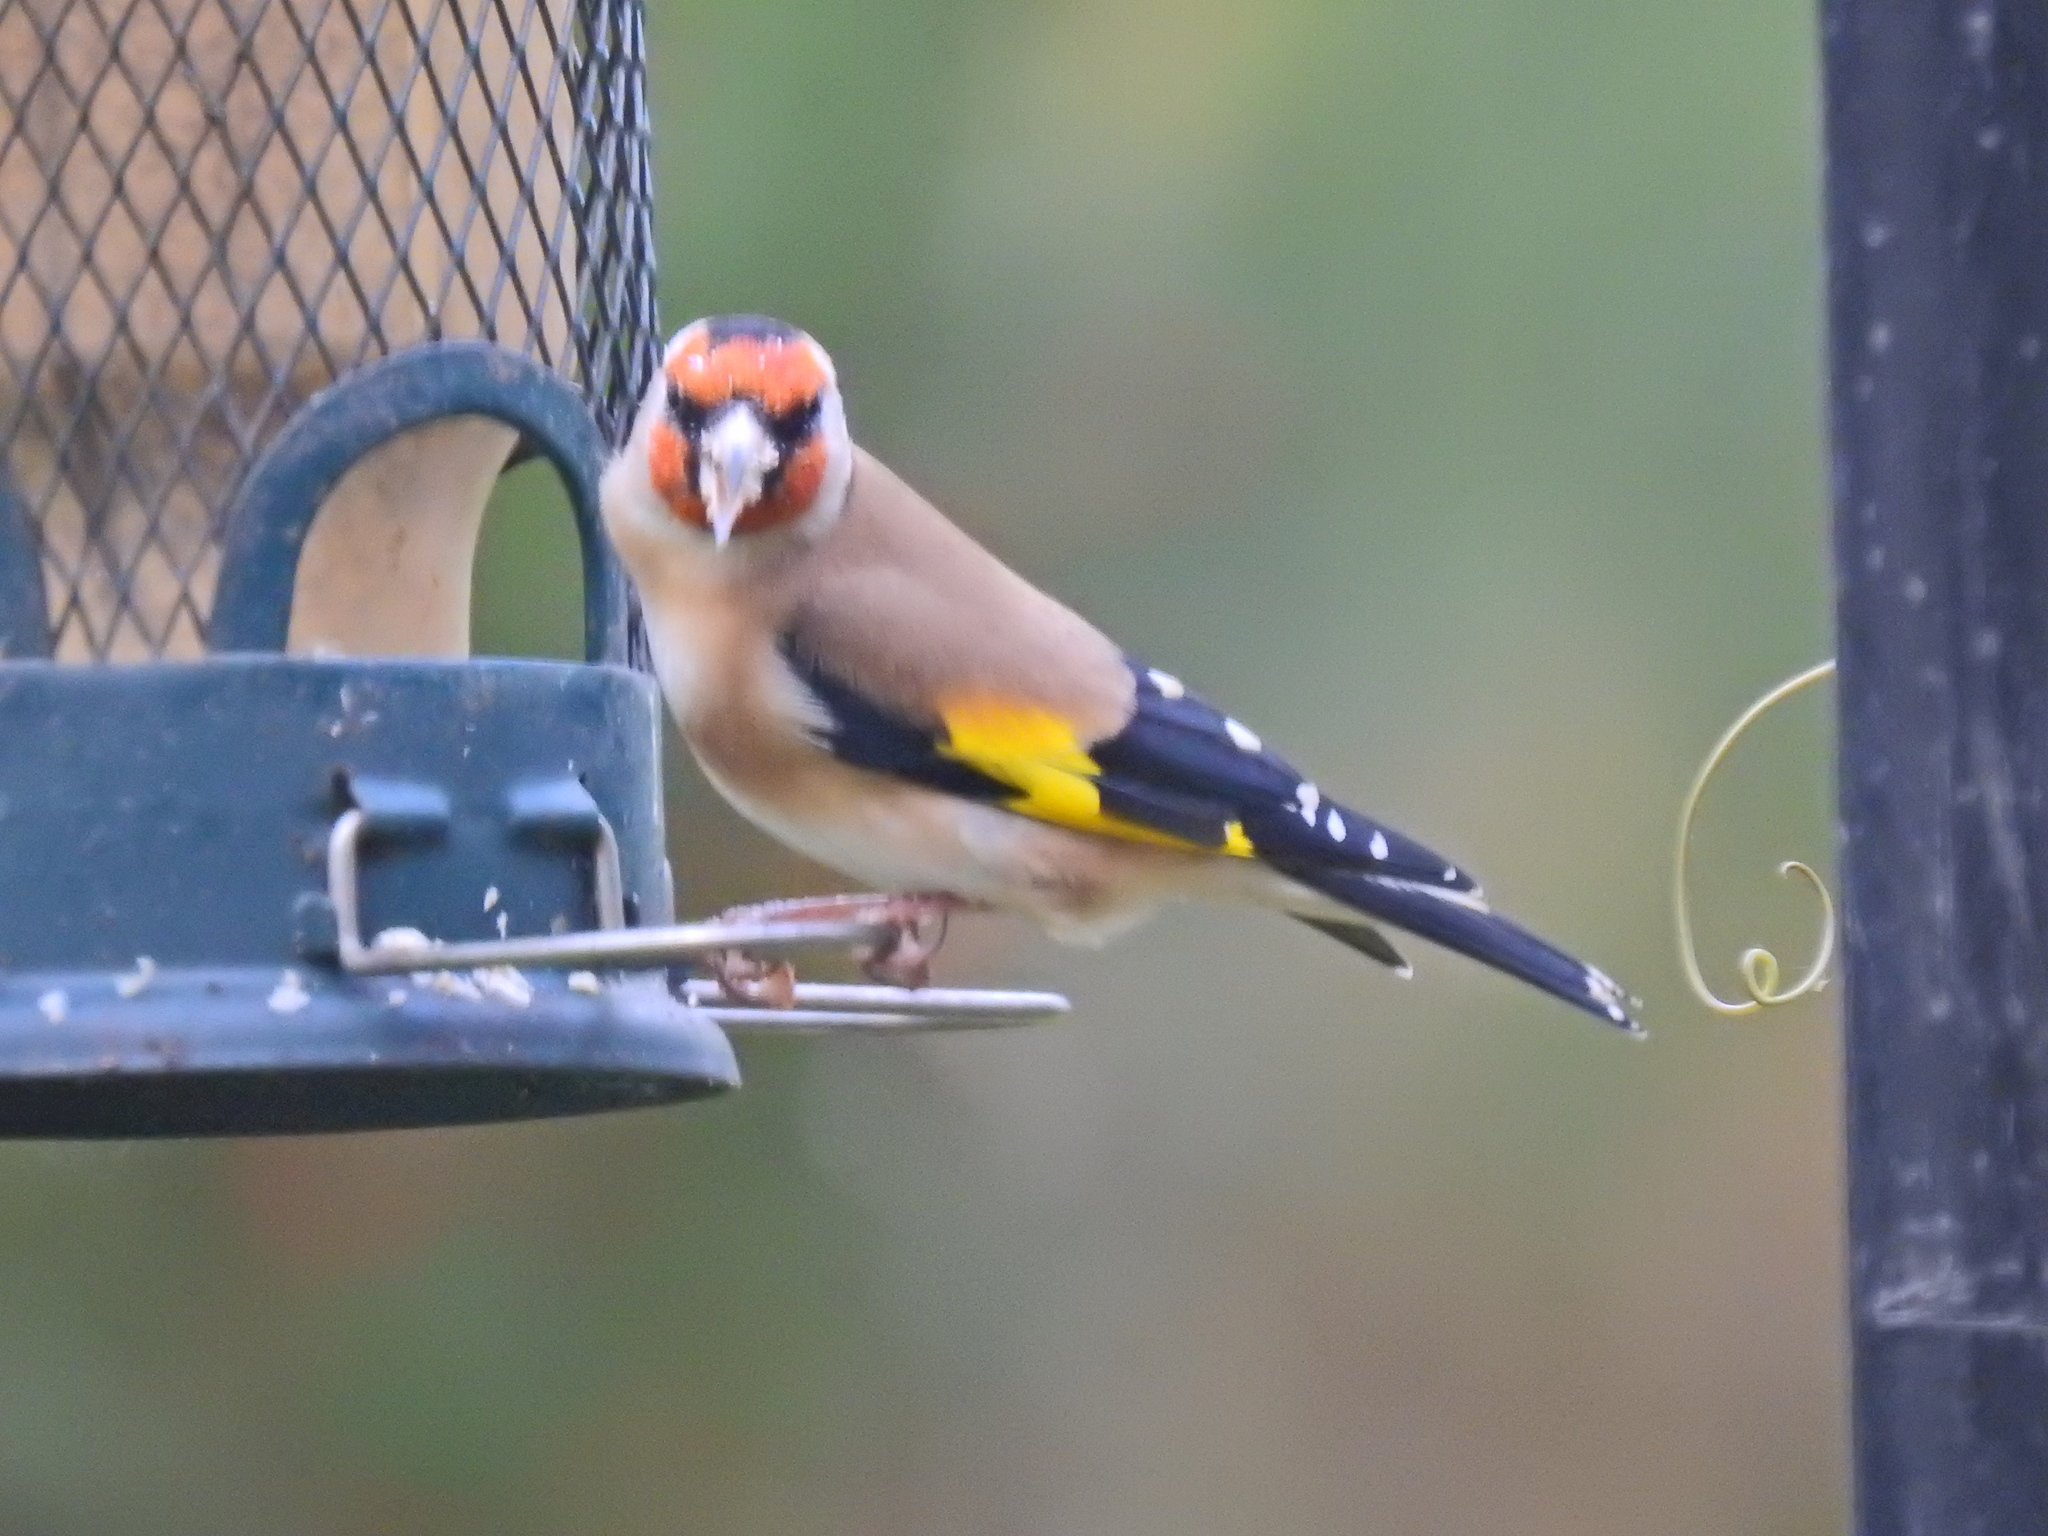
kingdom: Animalia
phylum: Chordata
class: Aves
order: Passeriformes
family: Fringillidae
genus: Carduelis
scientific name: Carduelis carduelis
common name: European goldfinch
